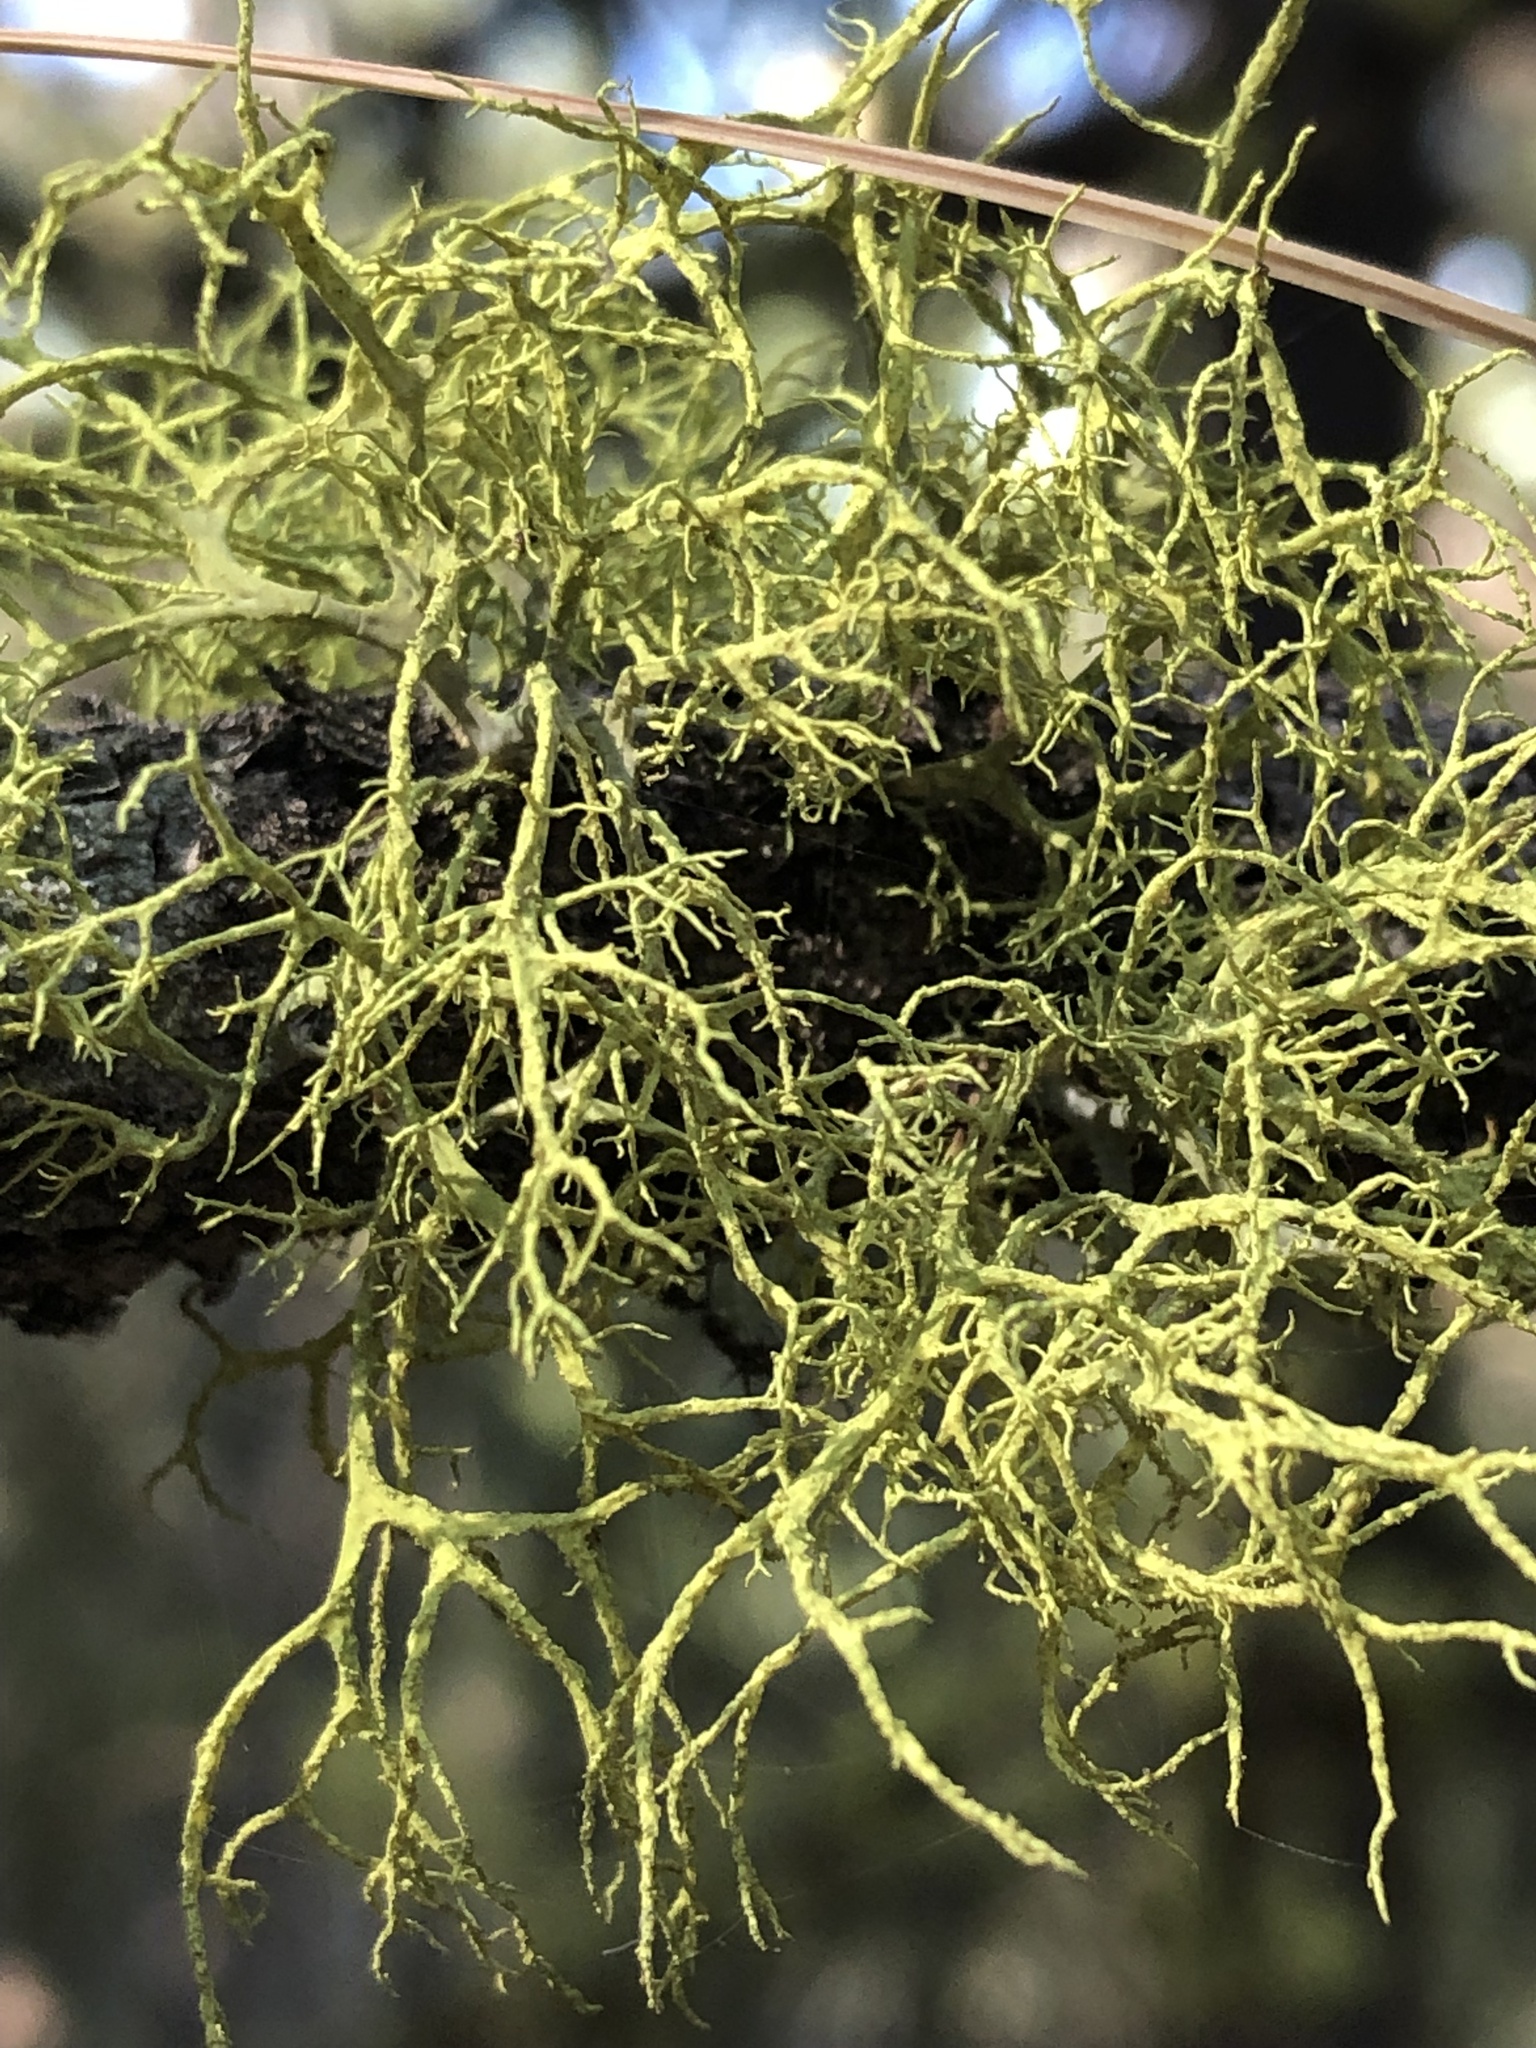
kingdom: Fungi
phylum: Ascomycota
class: Lecanoromycetes
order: Lecanorales
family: Parmeliaceae
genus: Letharia
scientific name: Letharia vulpina
